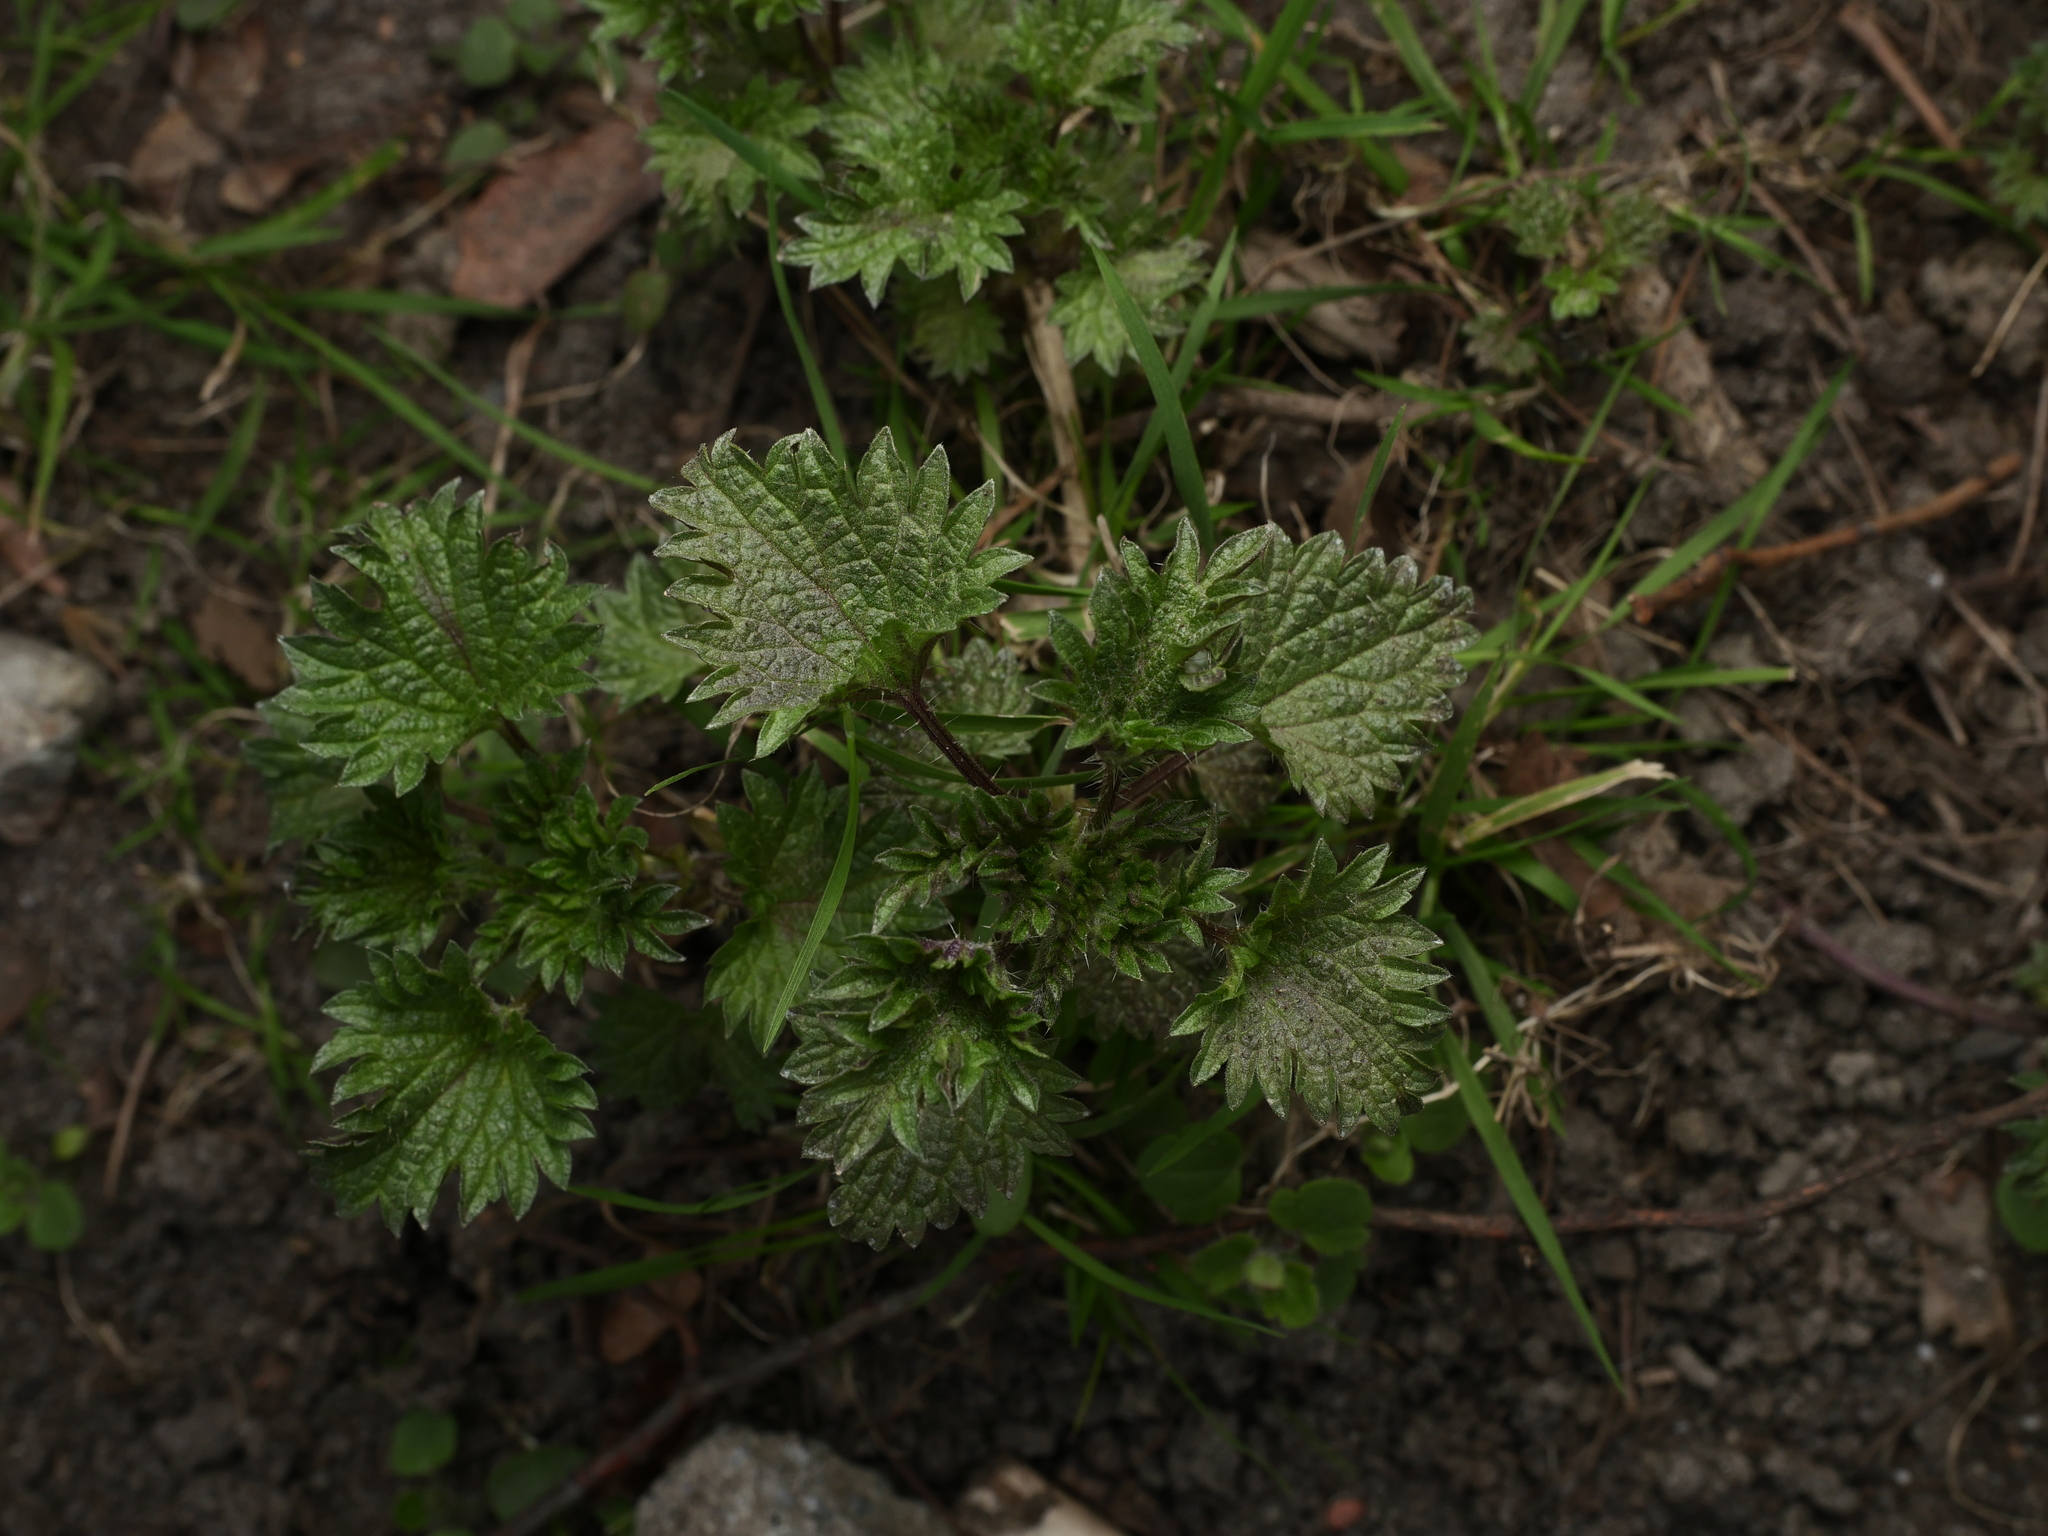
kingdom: Plantae
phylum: Tracheophyta
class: Magnoliopsida
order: Rosales
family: Urticaceae
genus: Urtica
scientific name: Urtica dioica
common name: Common nettle
